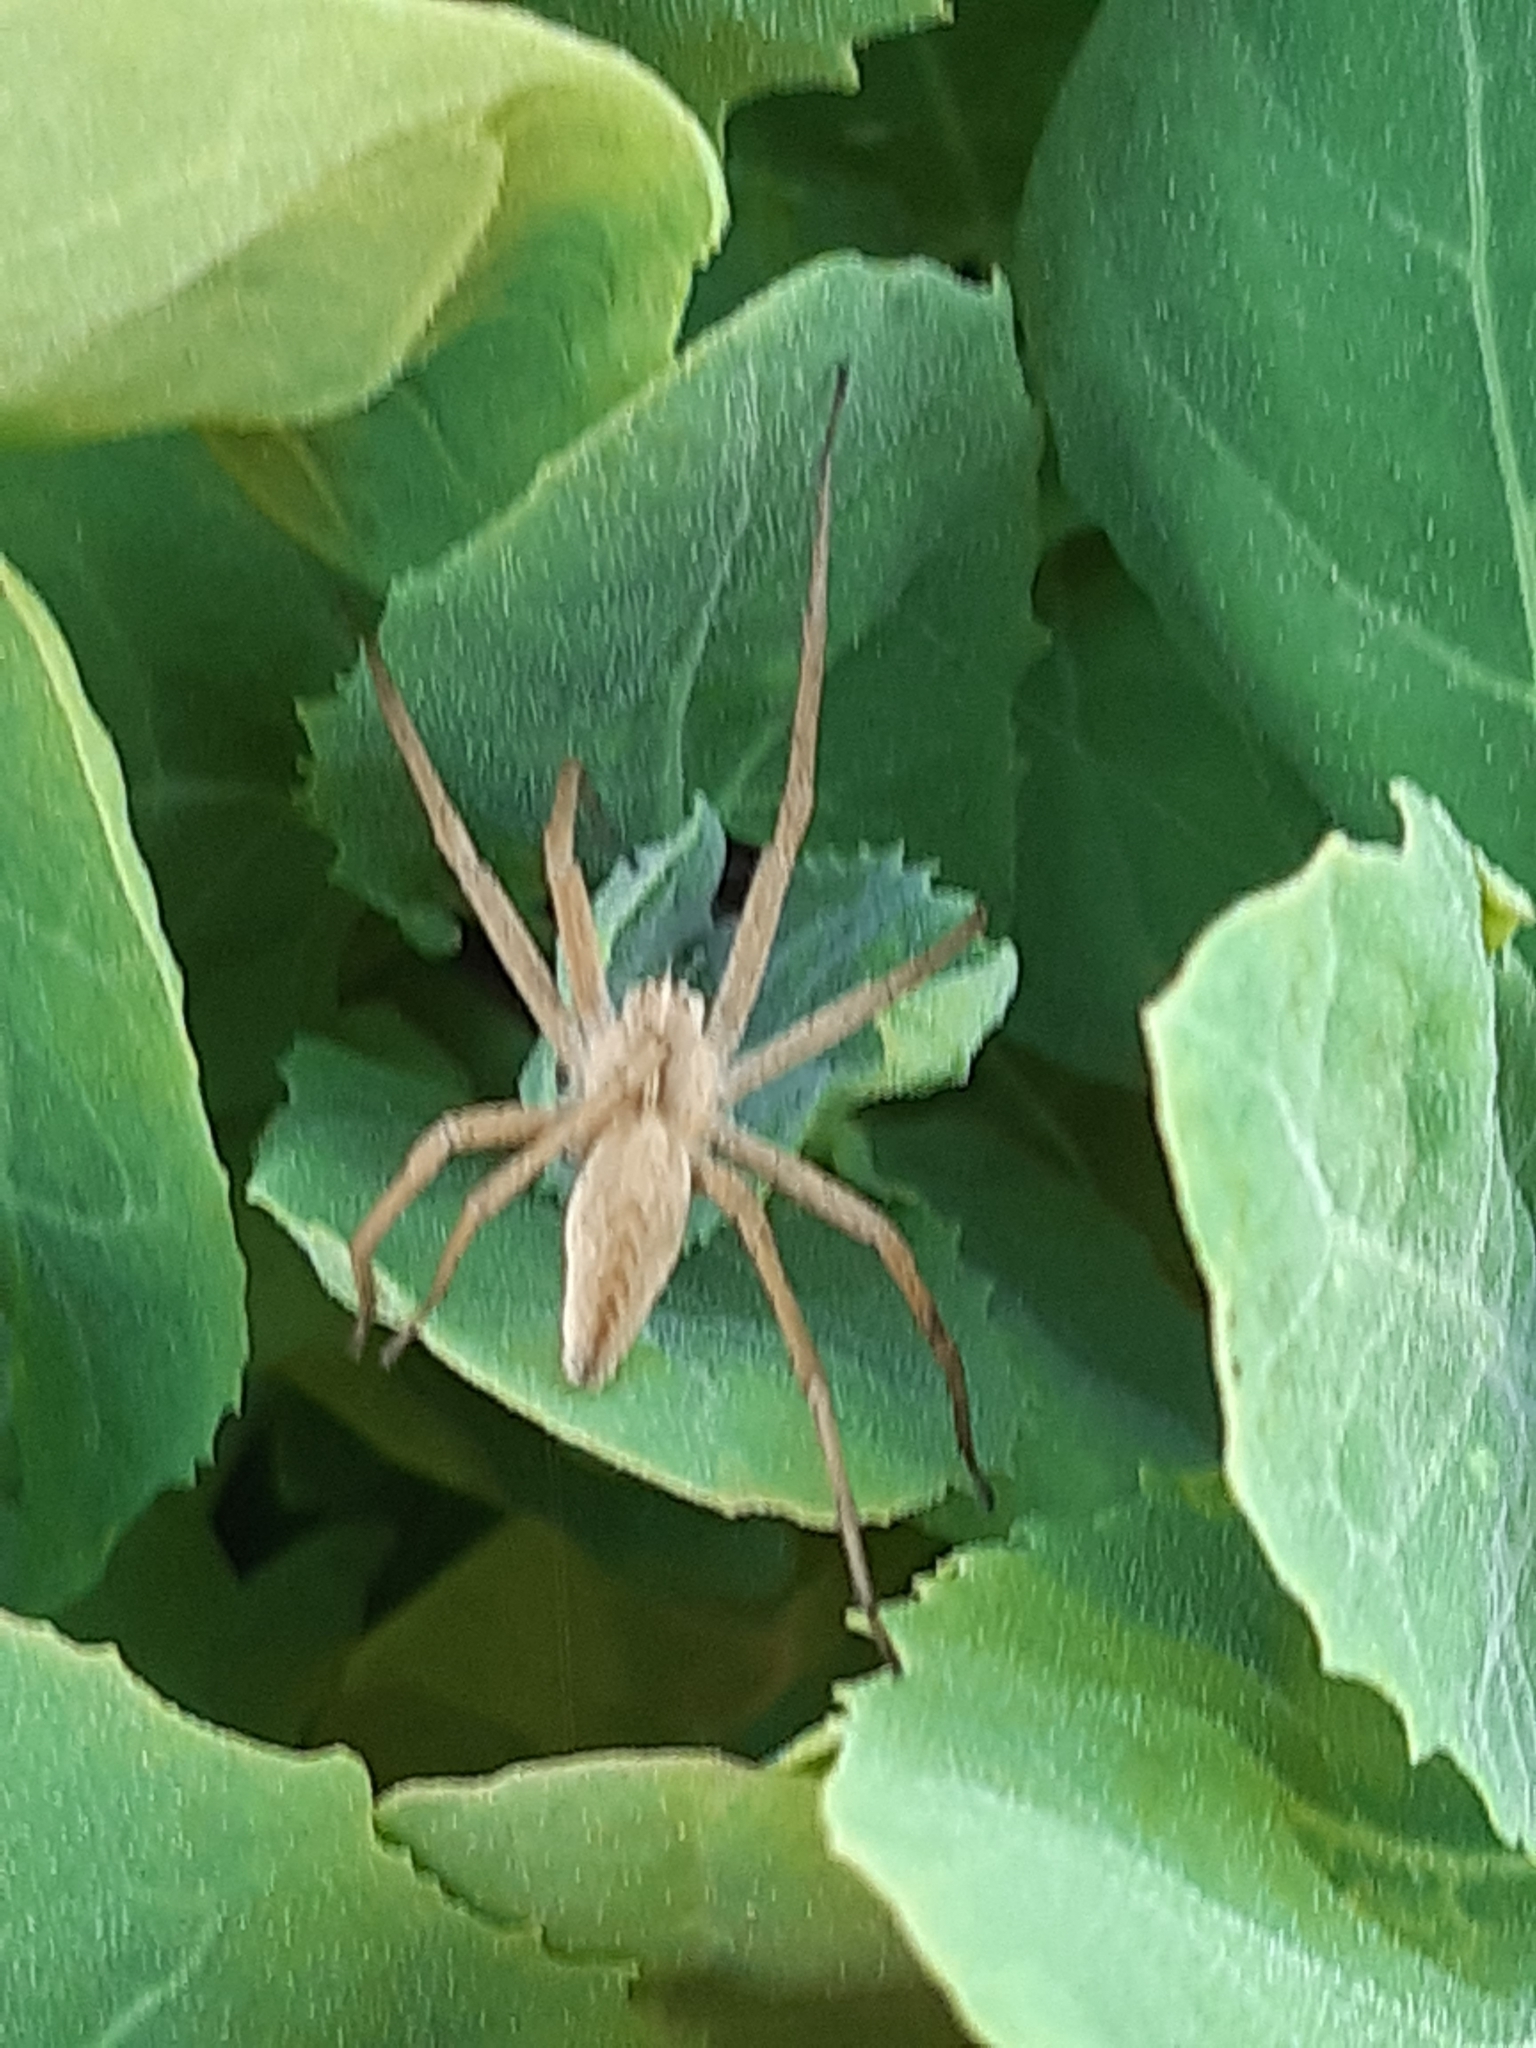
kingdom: Animalia
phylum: Arthropoda
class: Arachnida
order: Araneae
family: Pisauridae
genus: Pisaura
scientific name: Pisaura mirabilis
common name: Tent spider
